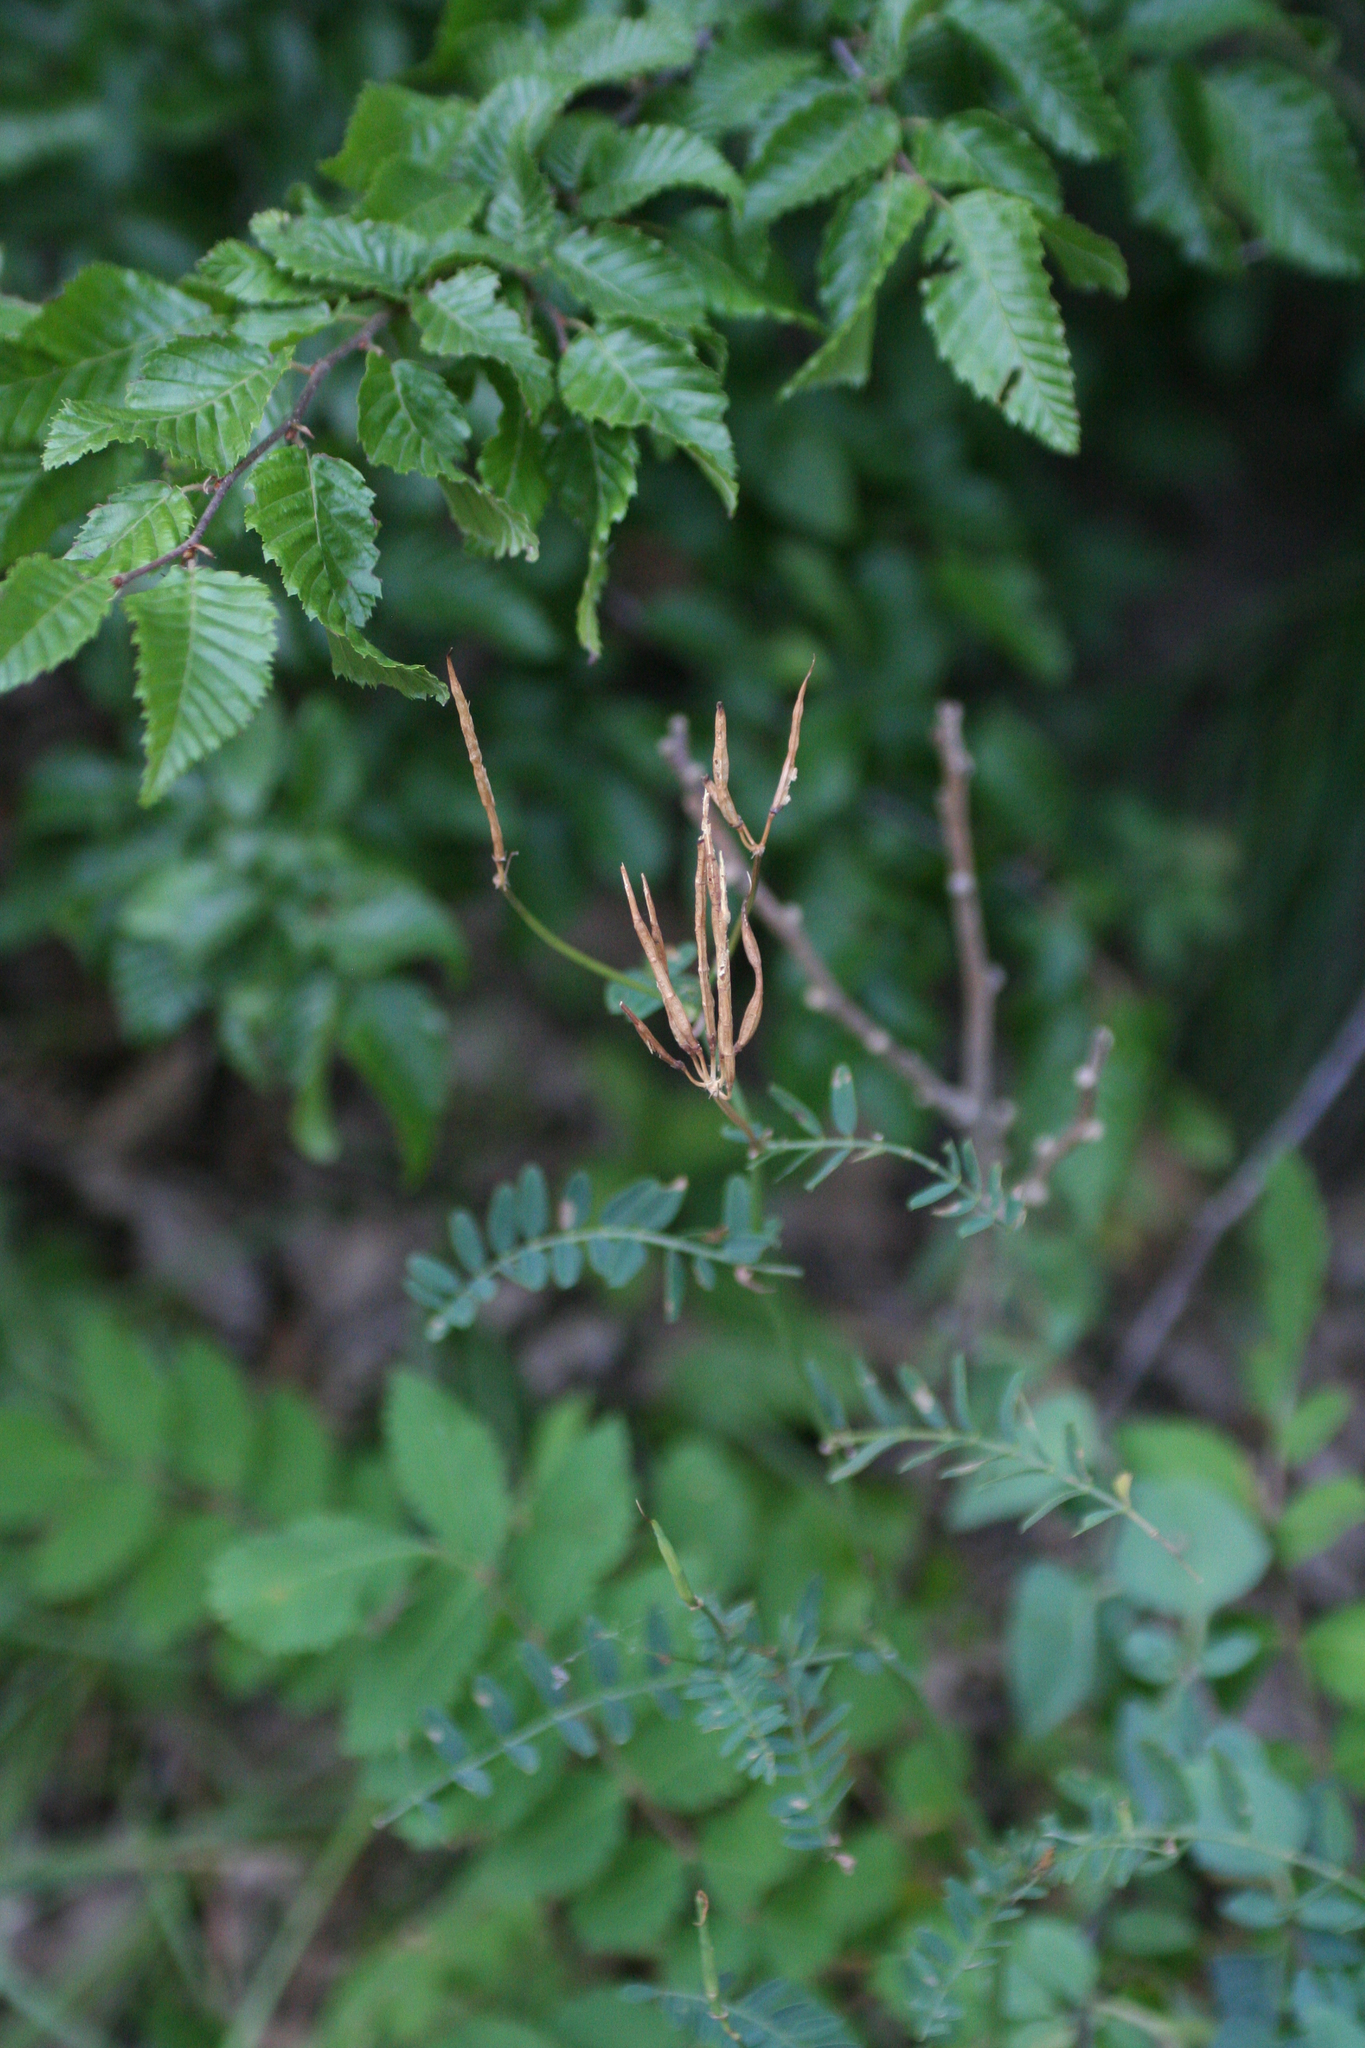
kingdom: Plantae
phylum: Tracheophyta
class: Magnoliopsida
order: Fagales
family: Betulaceae
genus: Carpinus
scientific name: Carpinus orientalis
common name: Eastern hornbeam
